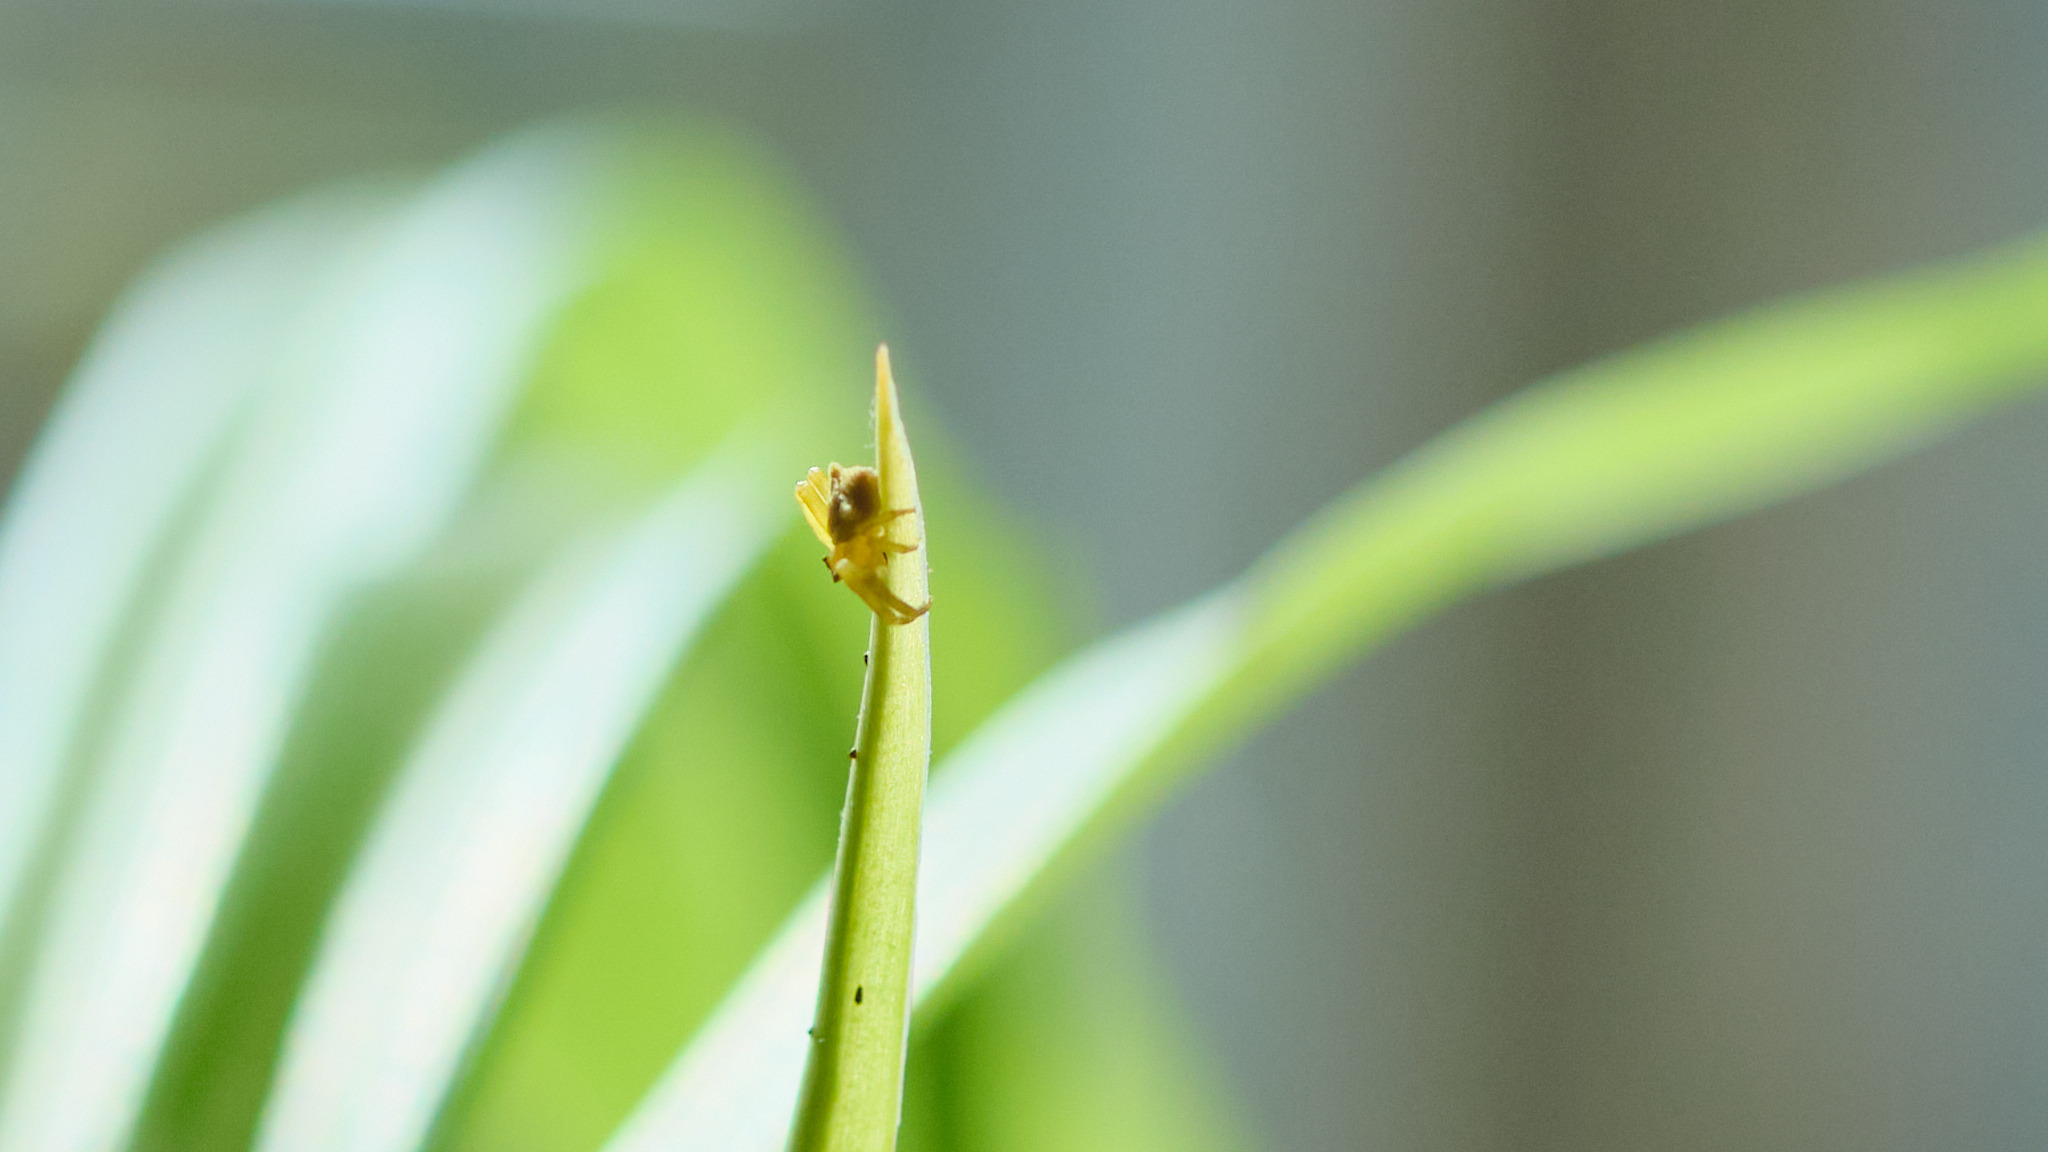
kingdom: Animalia
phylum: Arthropoda
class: Arachnida
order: Araneae
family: Thomisidae
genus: Thomisus
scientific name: Thomisus onustus
